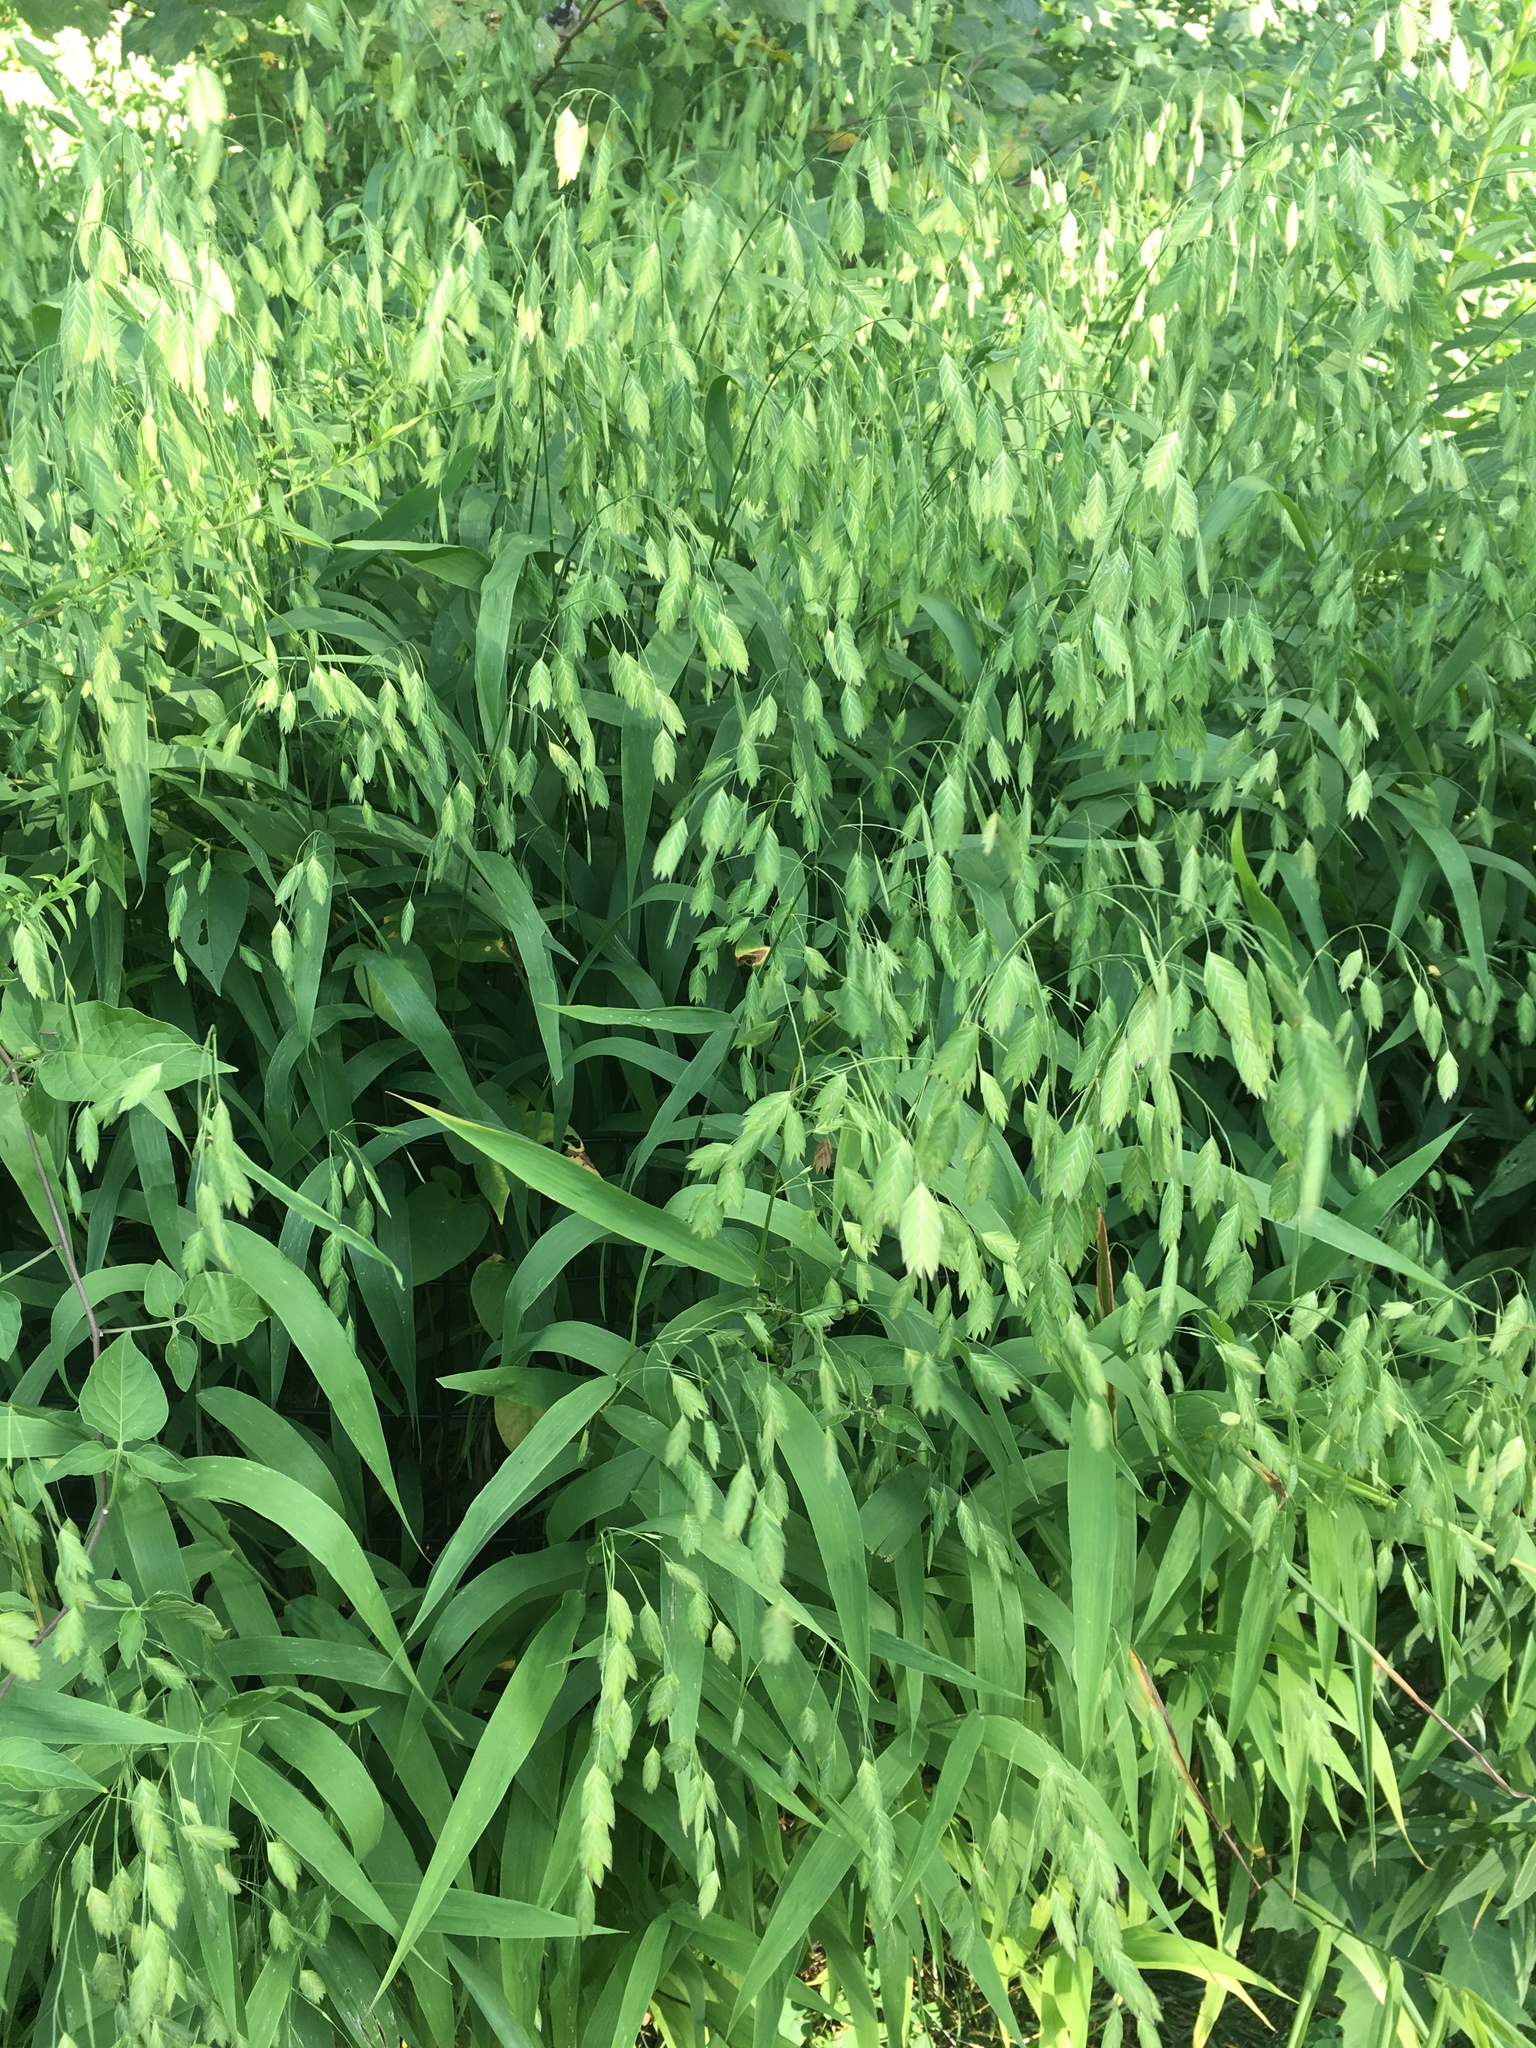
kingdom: Plantae
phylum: Tracheophyta
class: Liliopsida
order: Poales
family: Poaceae
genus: Chasmanthium
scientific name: Chasmanthium latifolium
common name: Broad-leaved chasmanthium
